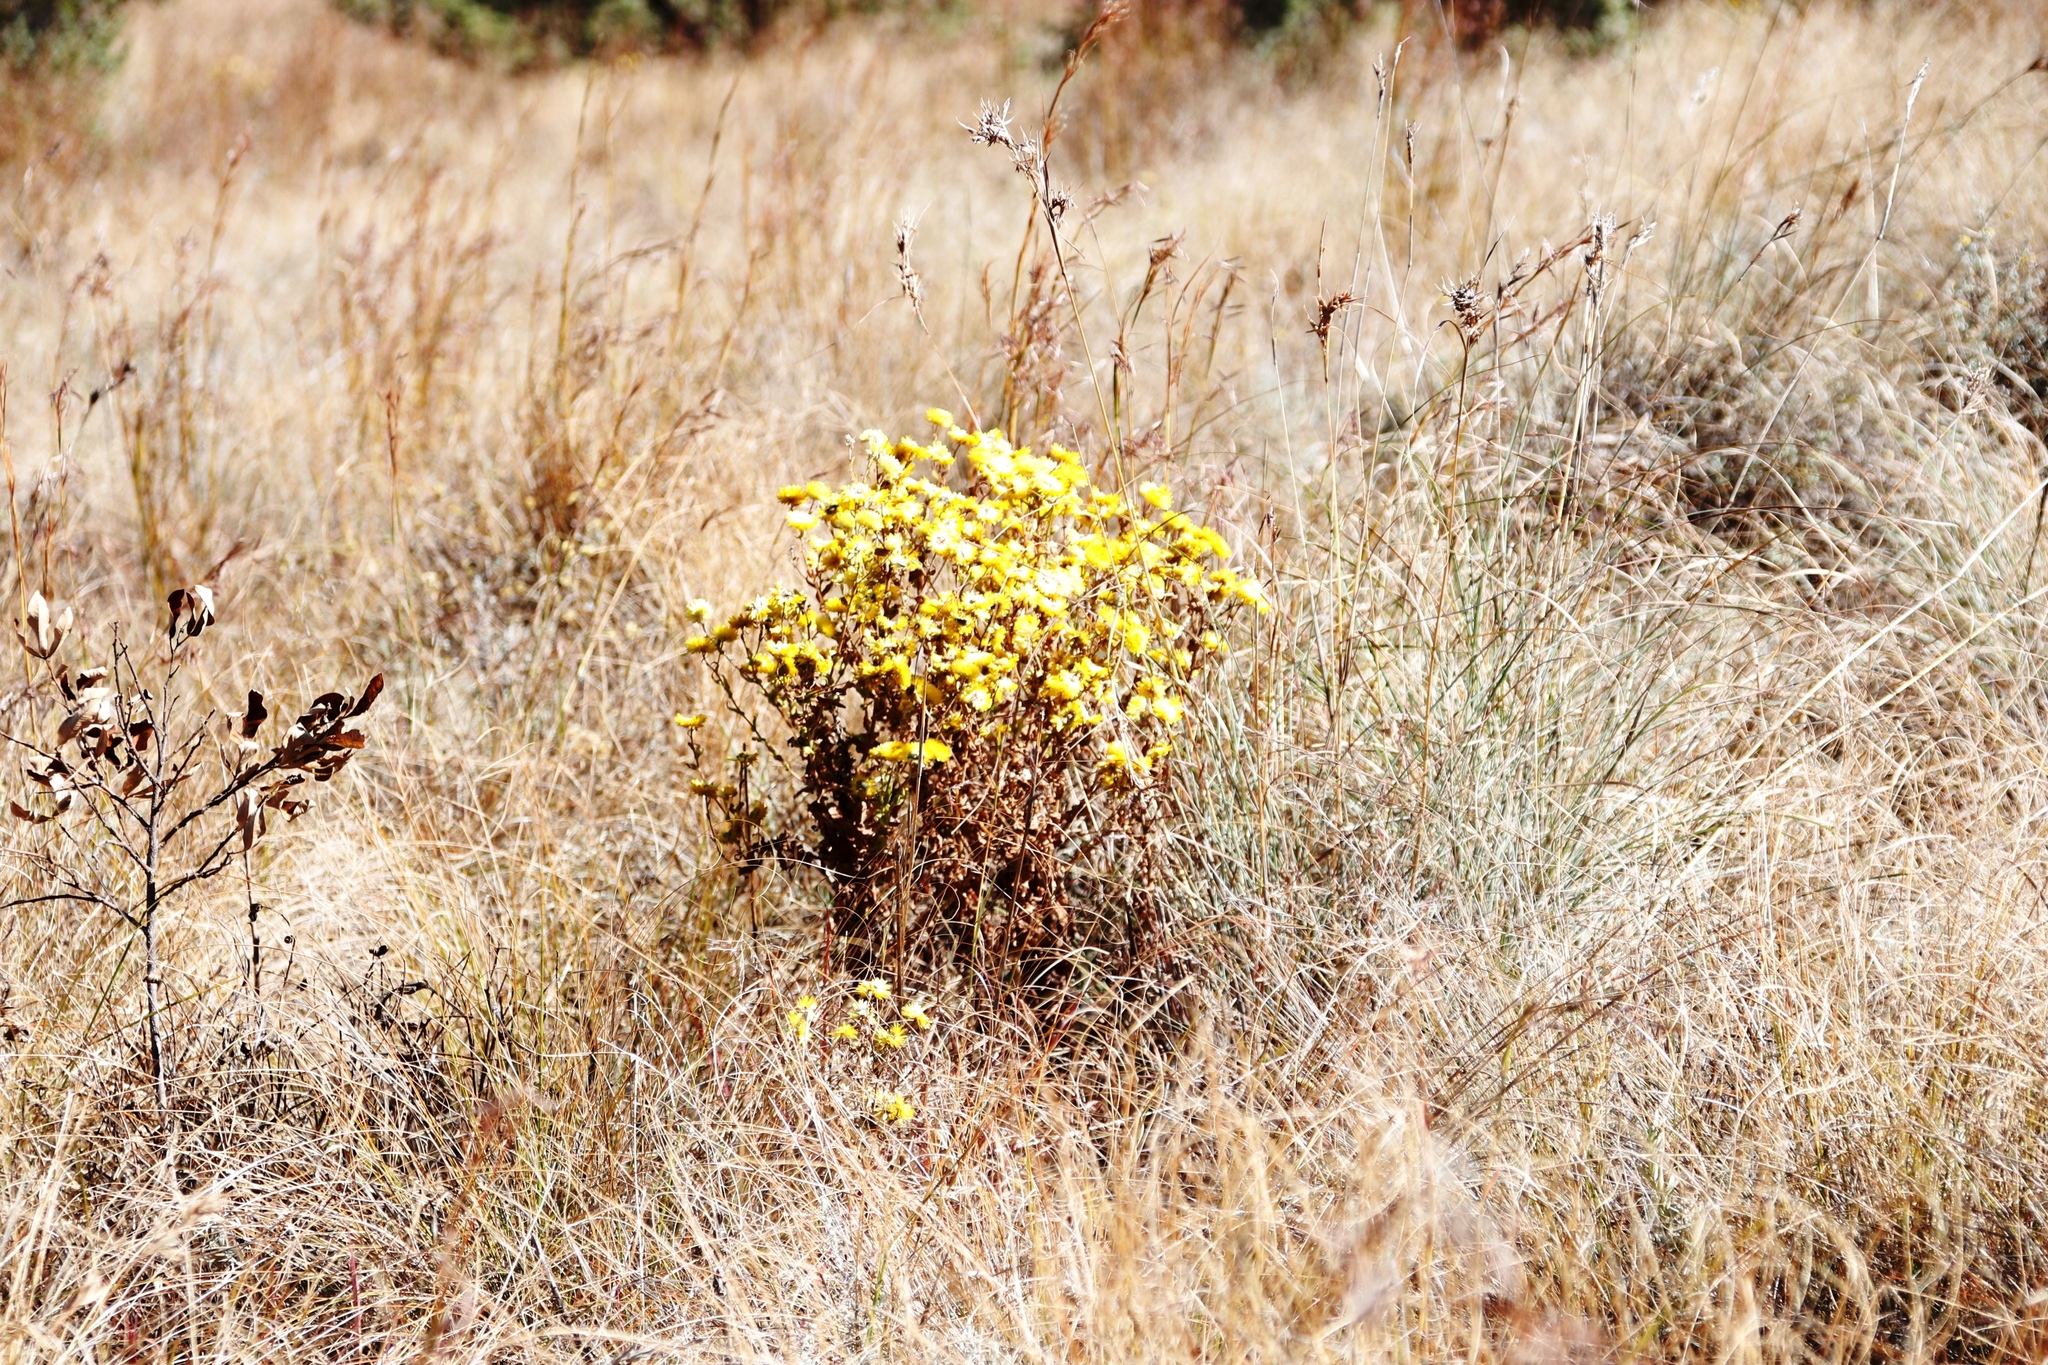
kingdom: Plantae
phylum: Tracheophyta
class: Magnoliopsida
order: Asterales
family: Asteraceae
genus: Helichrysum
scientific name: Helichrysum cooperi
